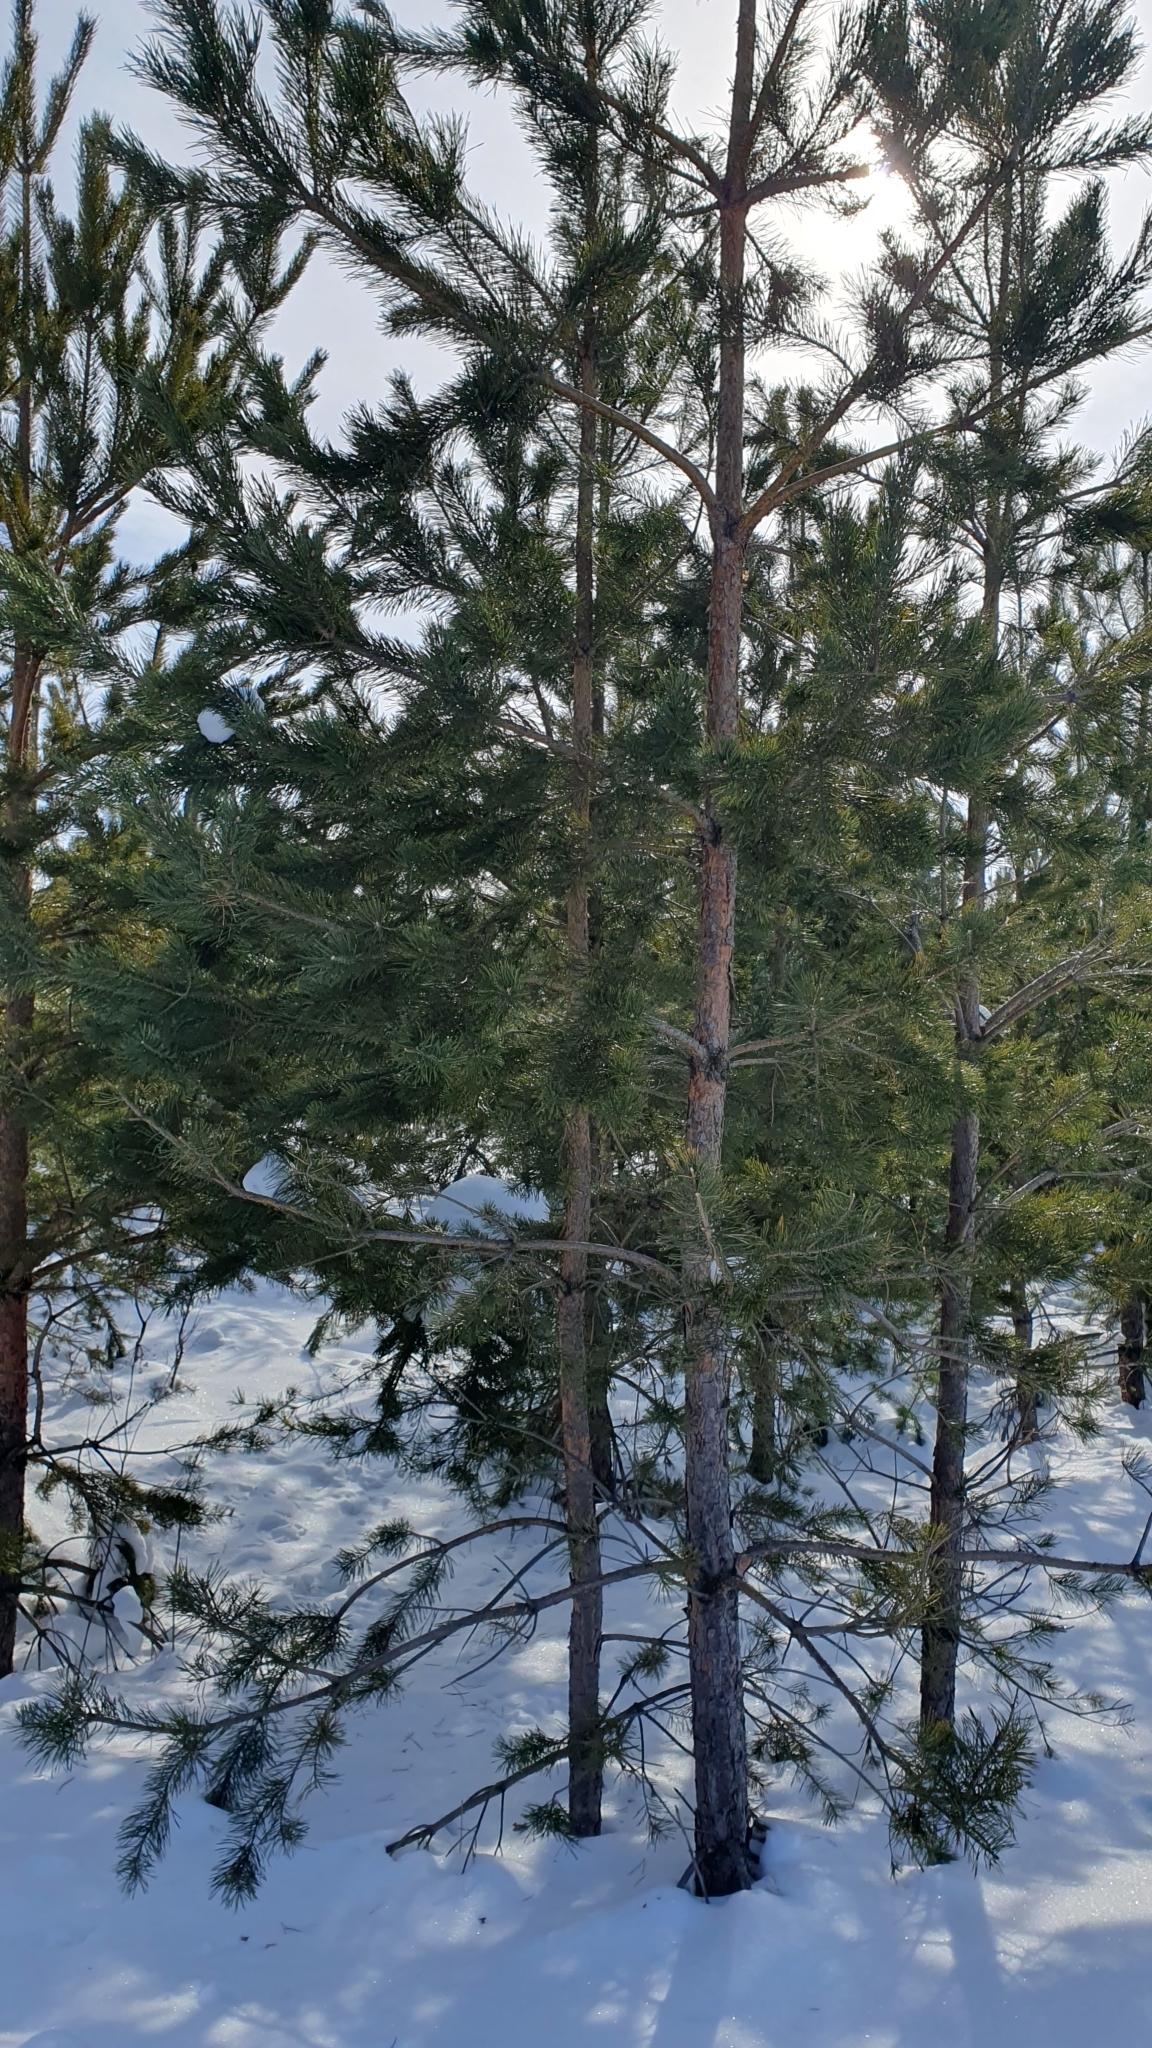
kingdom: Plantae
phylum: Tracheophyta
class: Pinopsida
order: Pinales
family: Pinaceae
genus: Pinus
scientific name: Pinus sylvestris
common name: Scots pine
